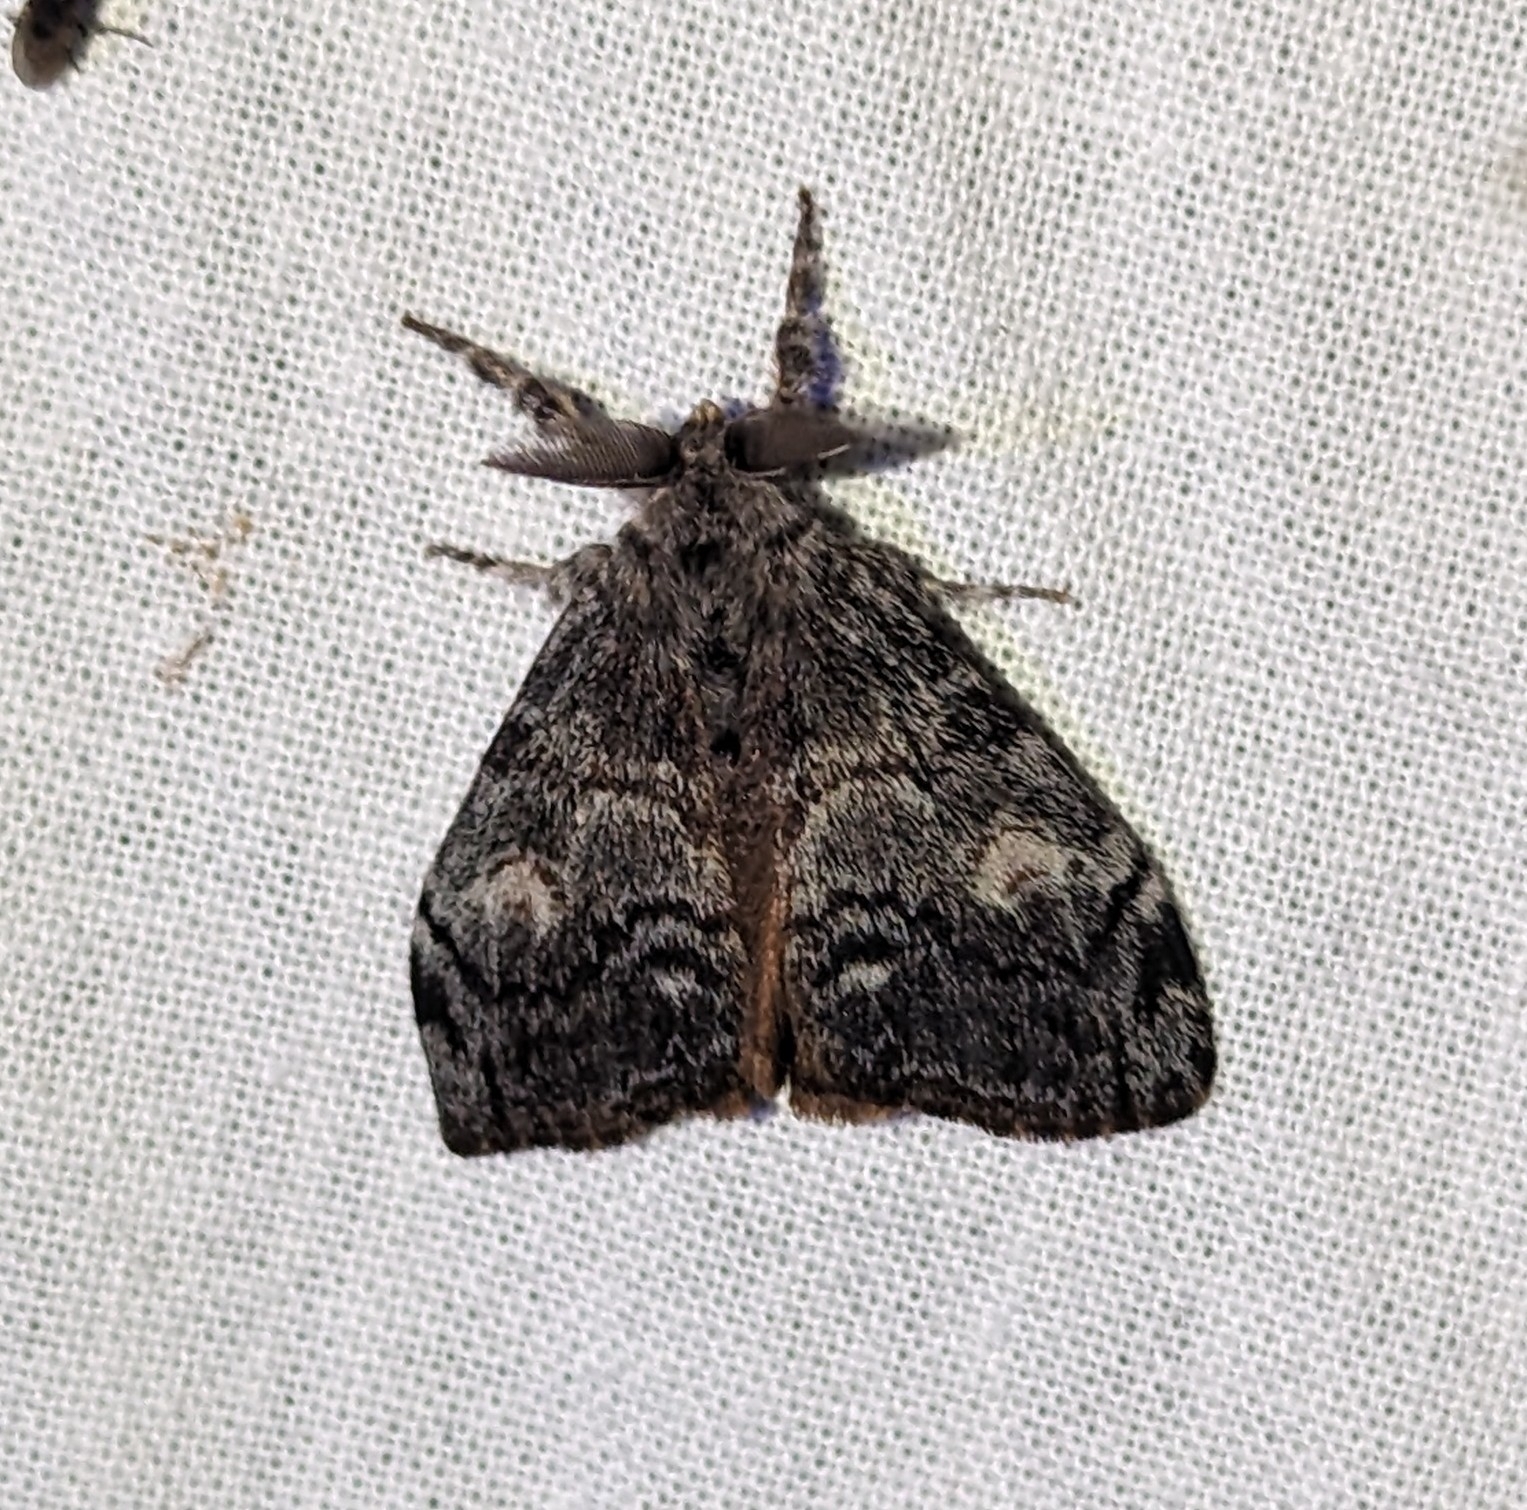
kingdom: Animalia
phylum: Arthropoda
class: Insecta
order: Lepidoptera
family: Erebidae
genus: Orgyia
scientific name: Orgyia pseudotsugata
